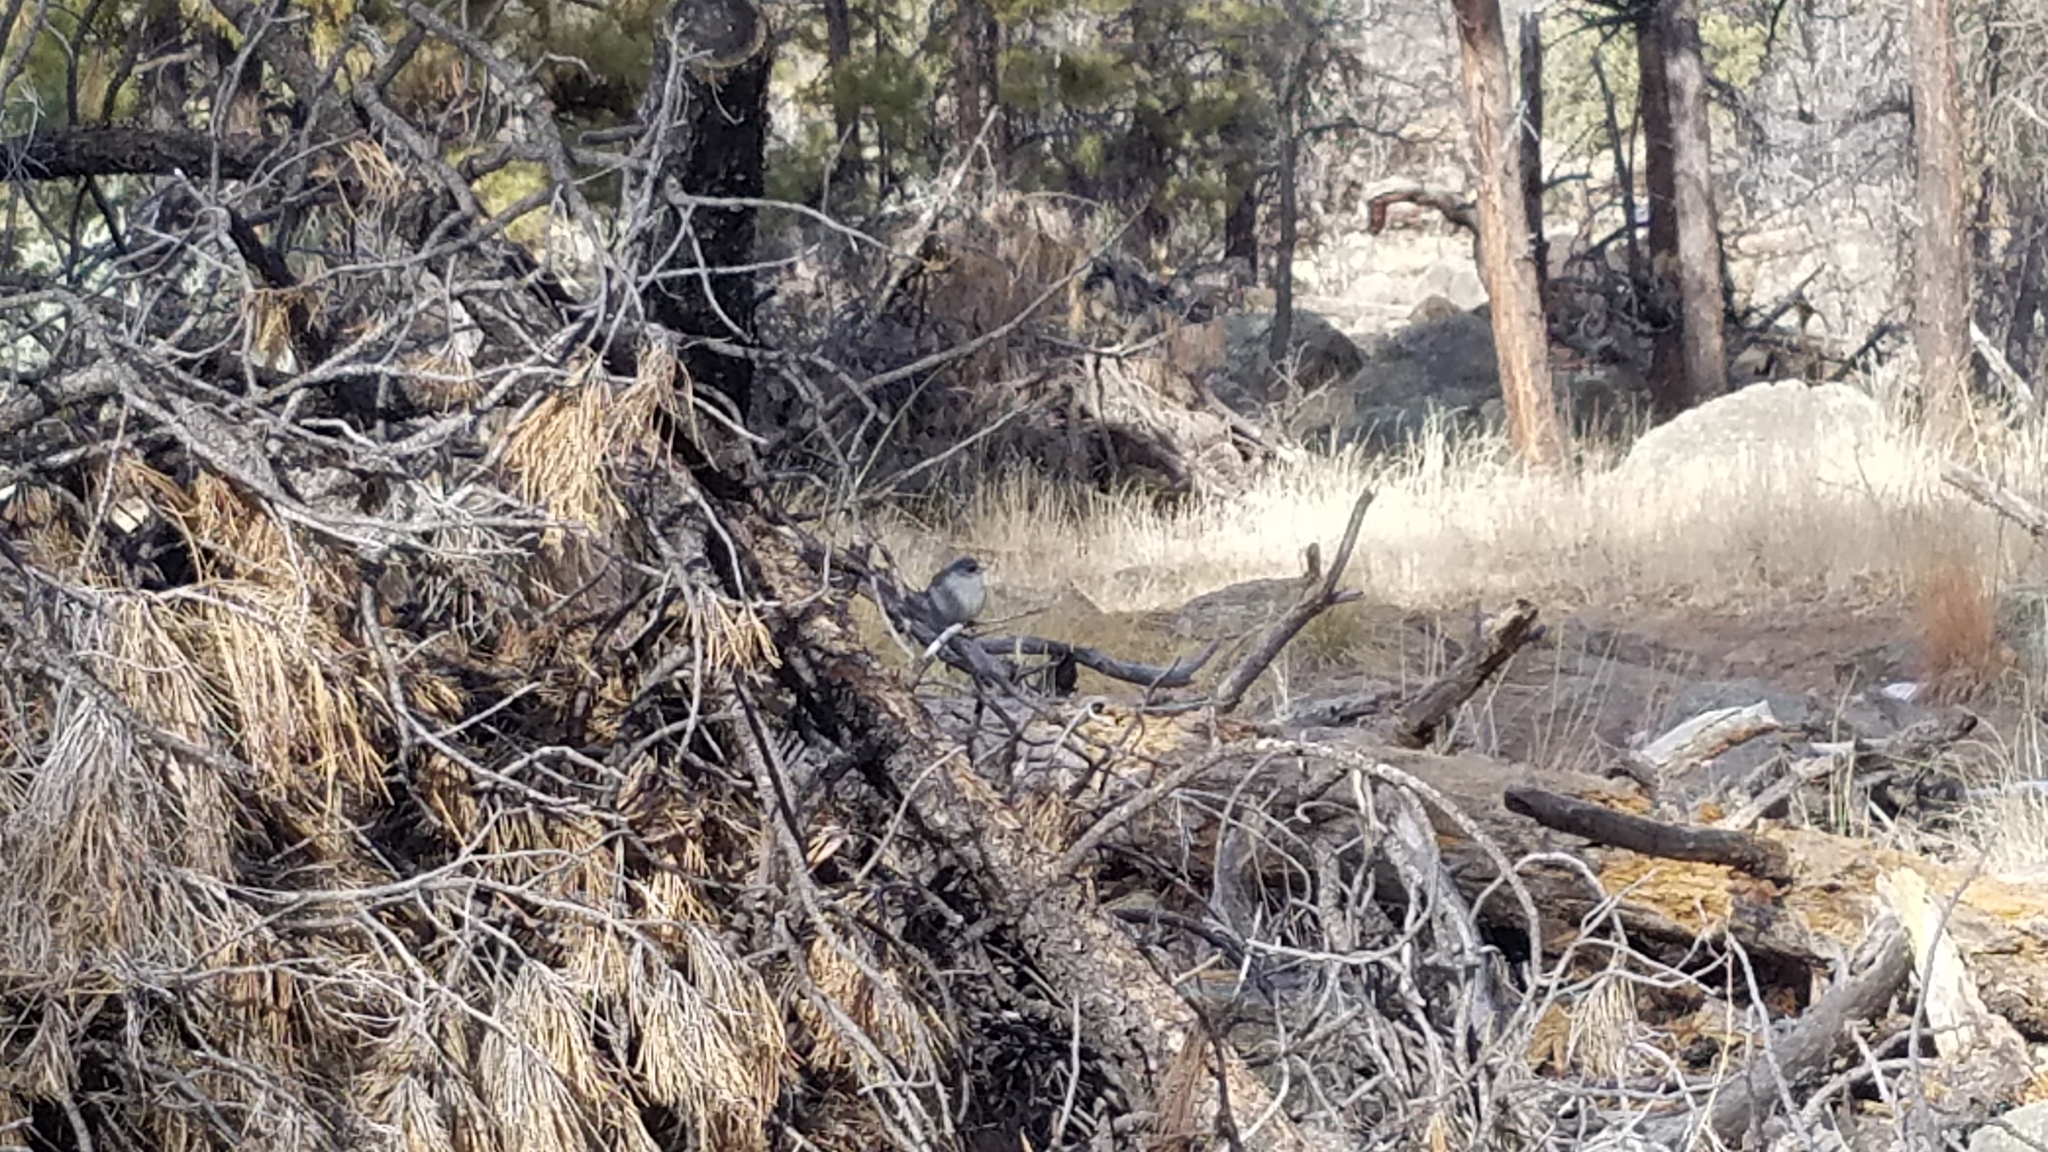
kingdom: Animalia
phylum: Chordata
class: Aves
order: Passeriformes
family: Passerellidae
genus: Junco
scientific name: Junco hyemalis
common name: Dark-eyed junco
